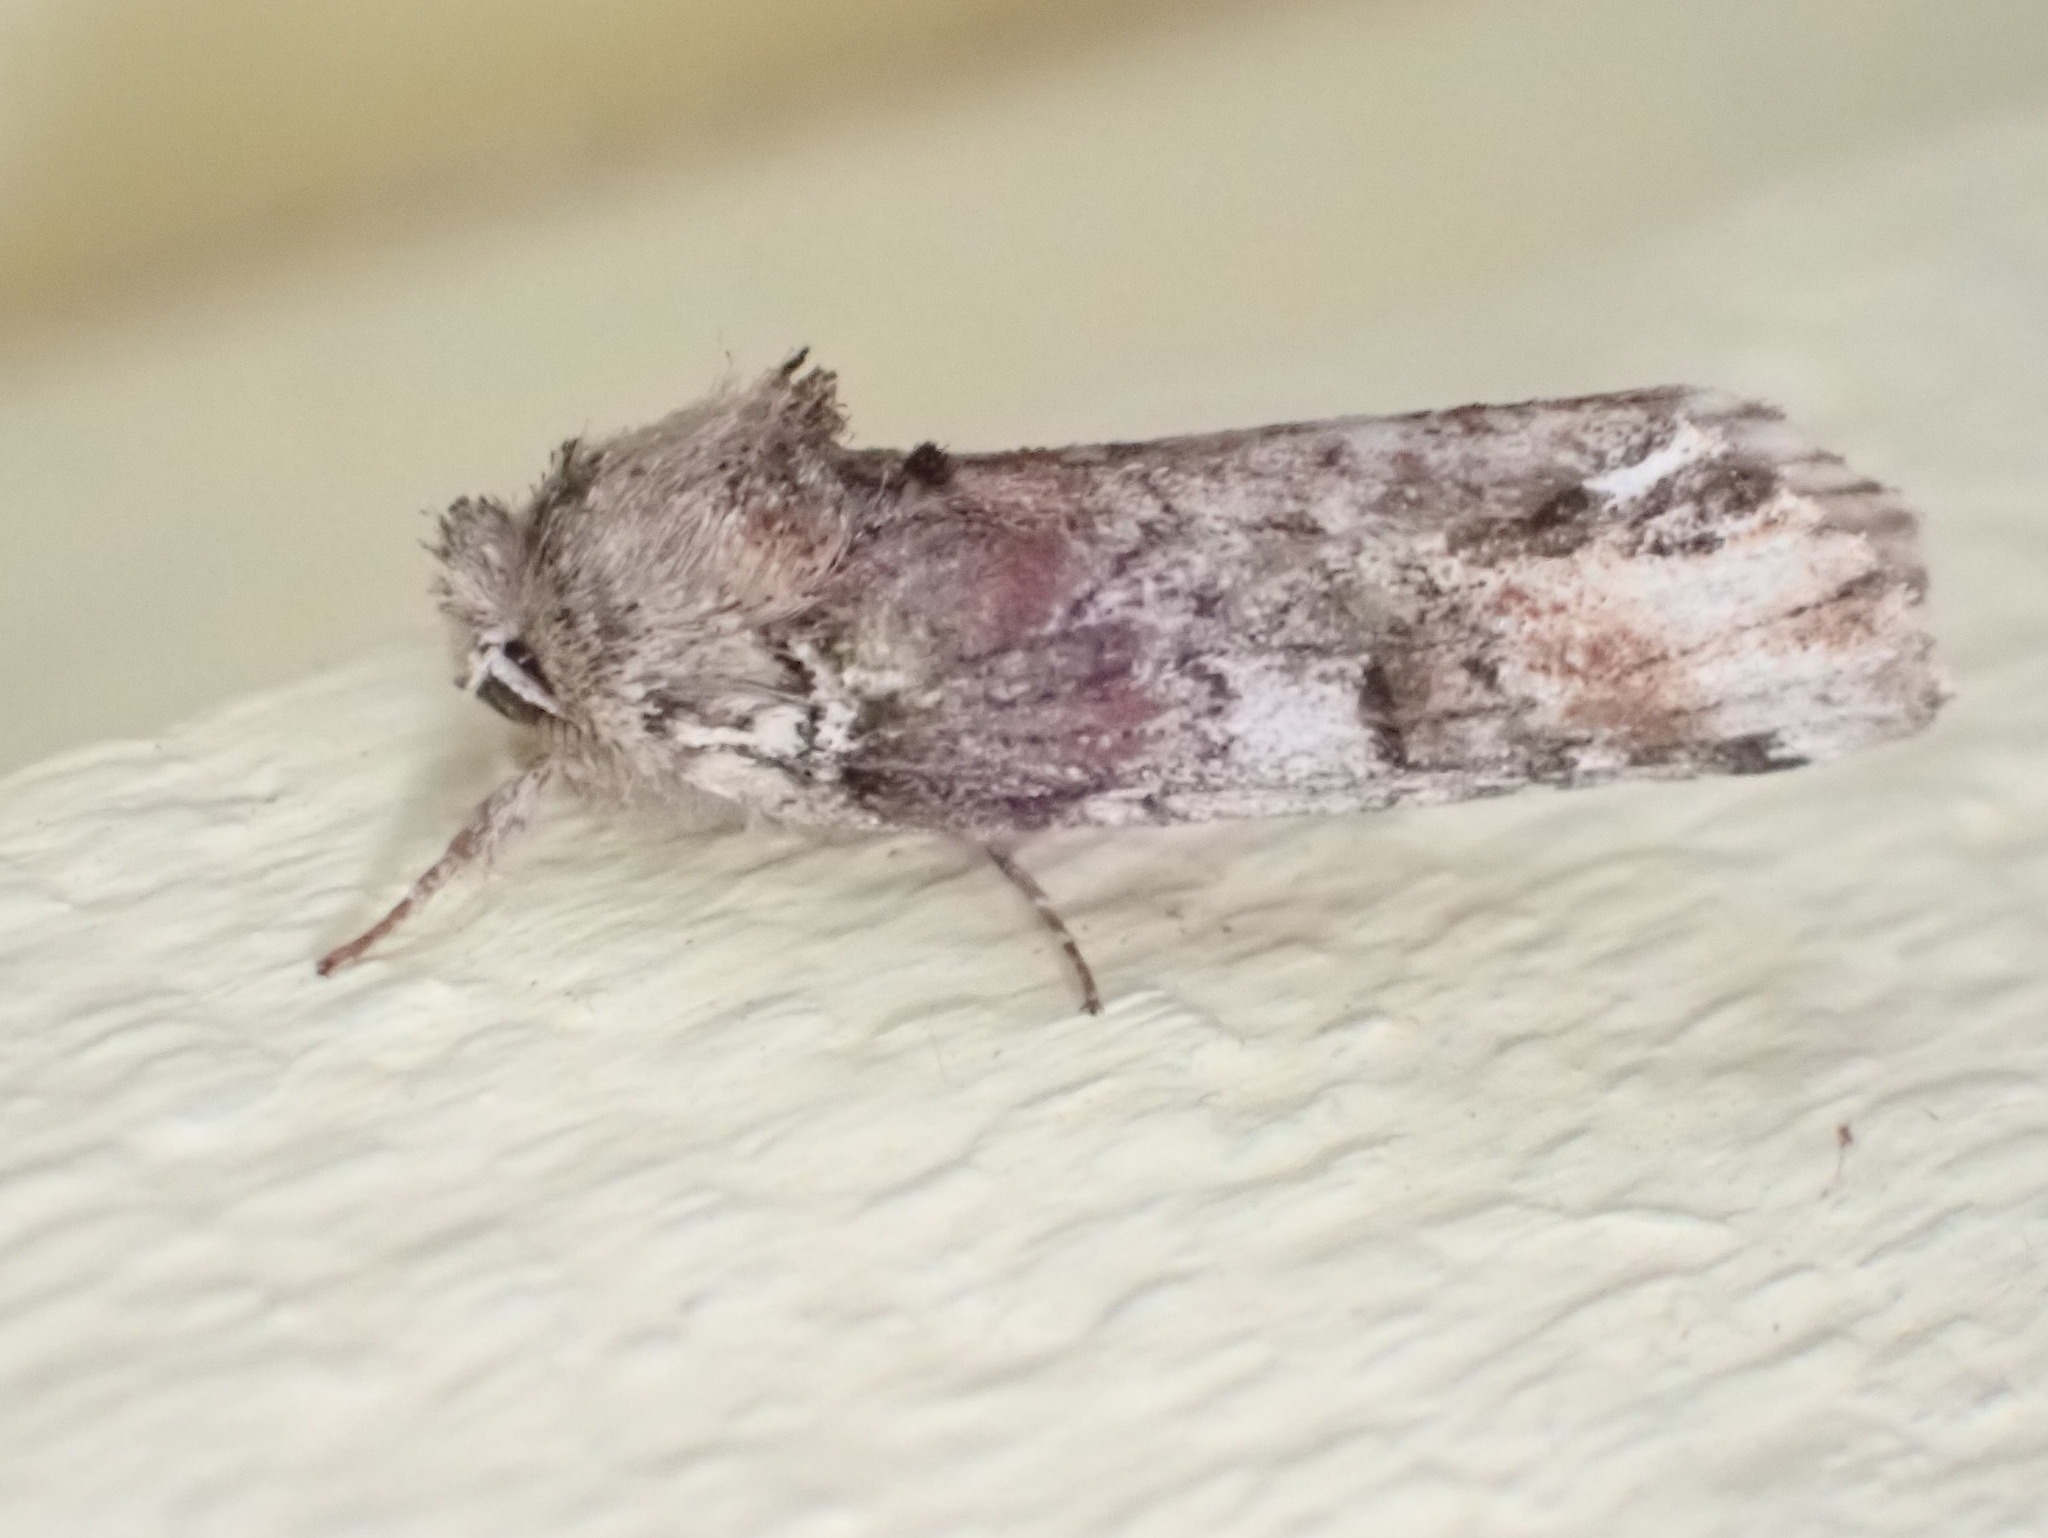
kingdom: Animalia
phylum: Arthropoda
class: Insecta
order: Lepidoptera
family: Notodontidae
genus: Schizura
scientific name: Schizura
